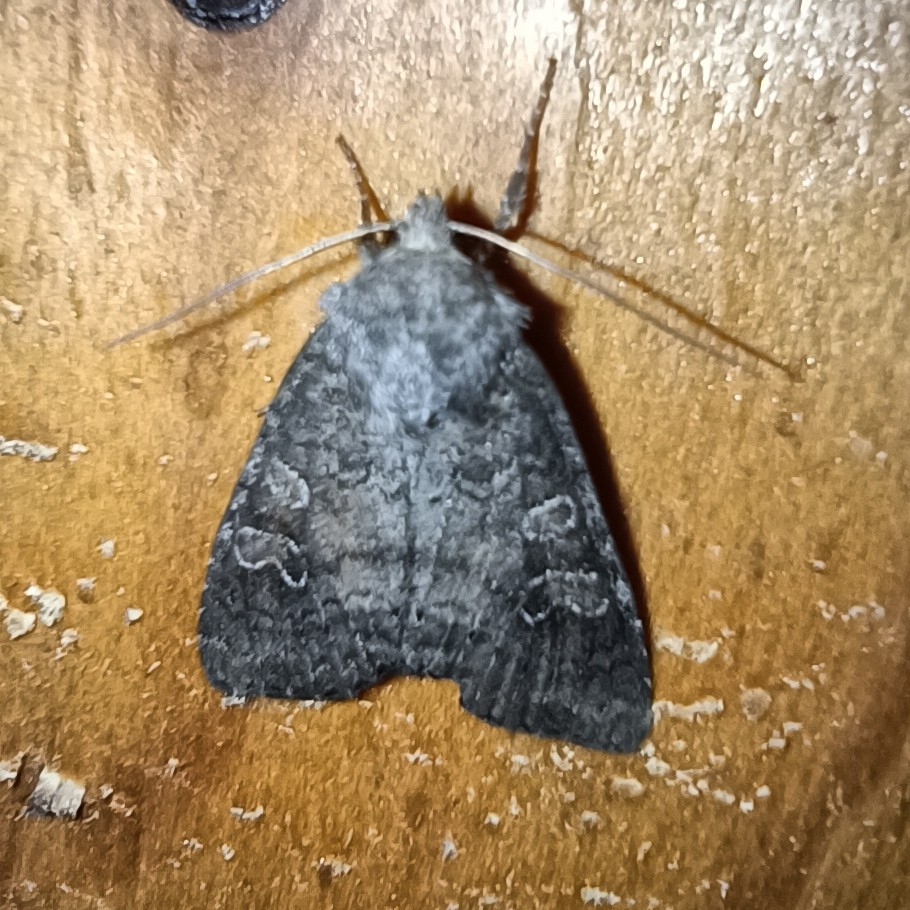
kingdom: Animalia
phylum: Arthropoda
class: Insecta
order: Lepidoptera
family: Noctuidae
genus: Parastichtis
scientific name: Parastichtis suspecta
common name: Suspected
